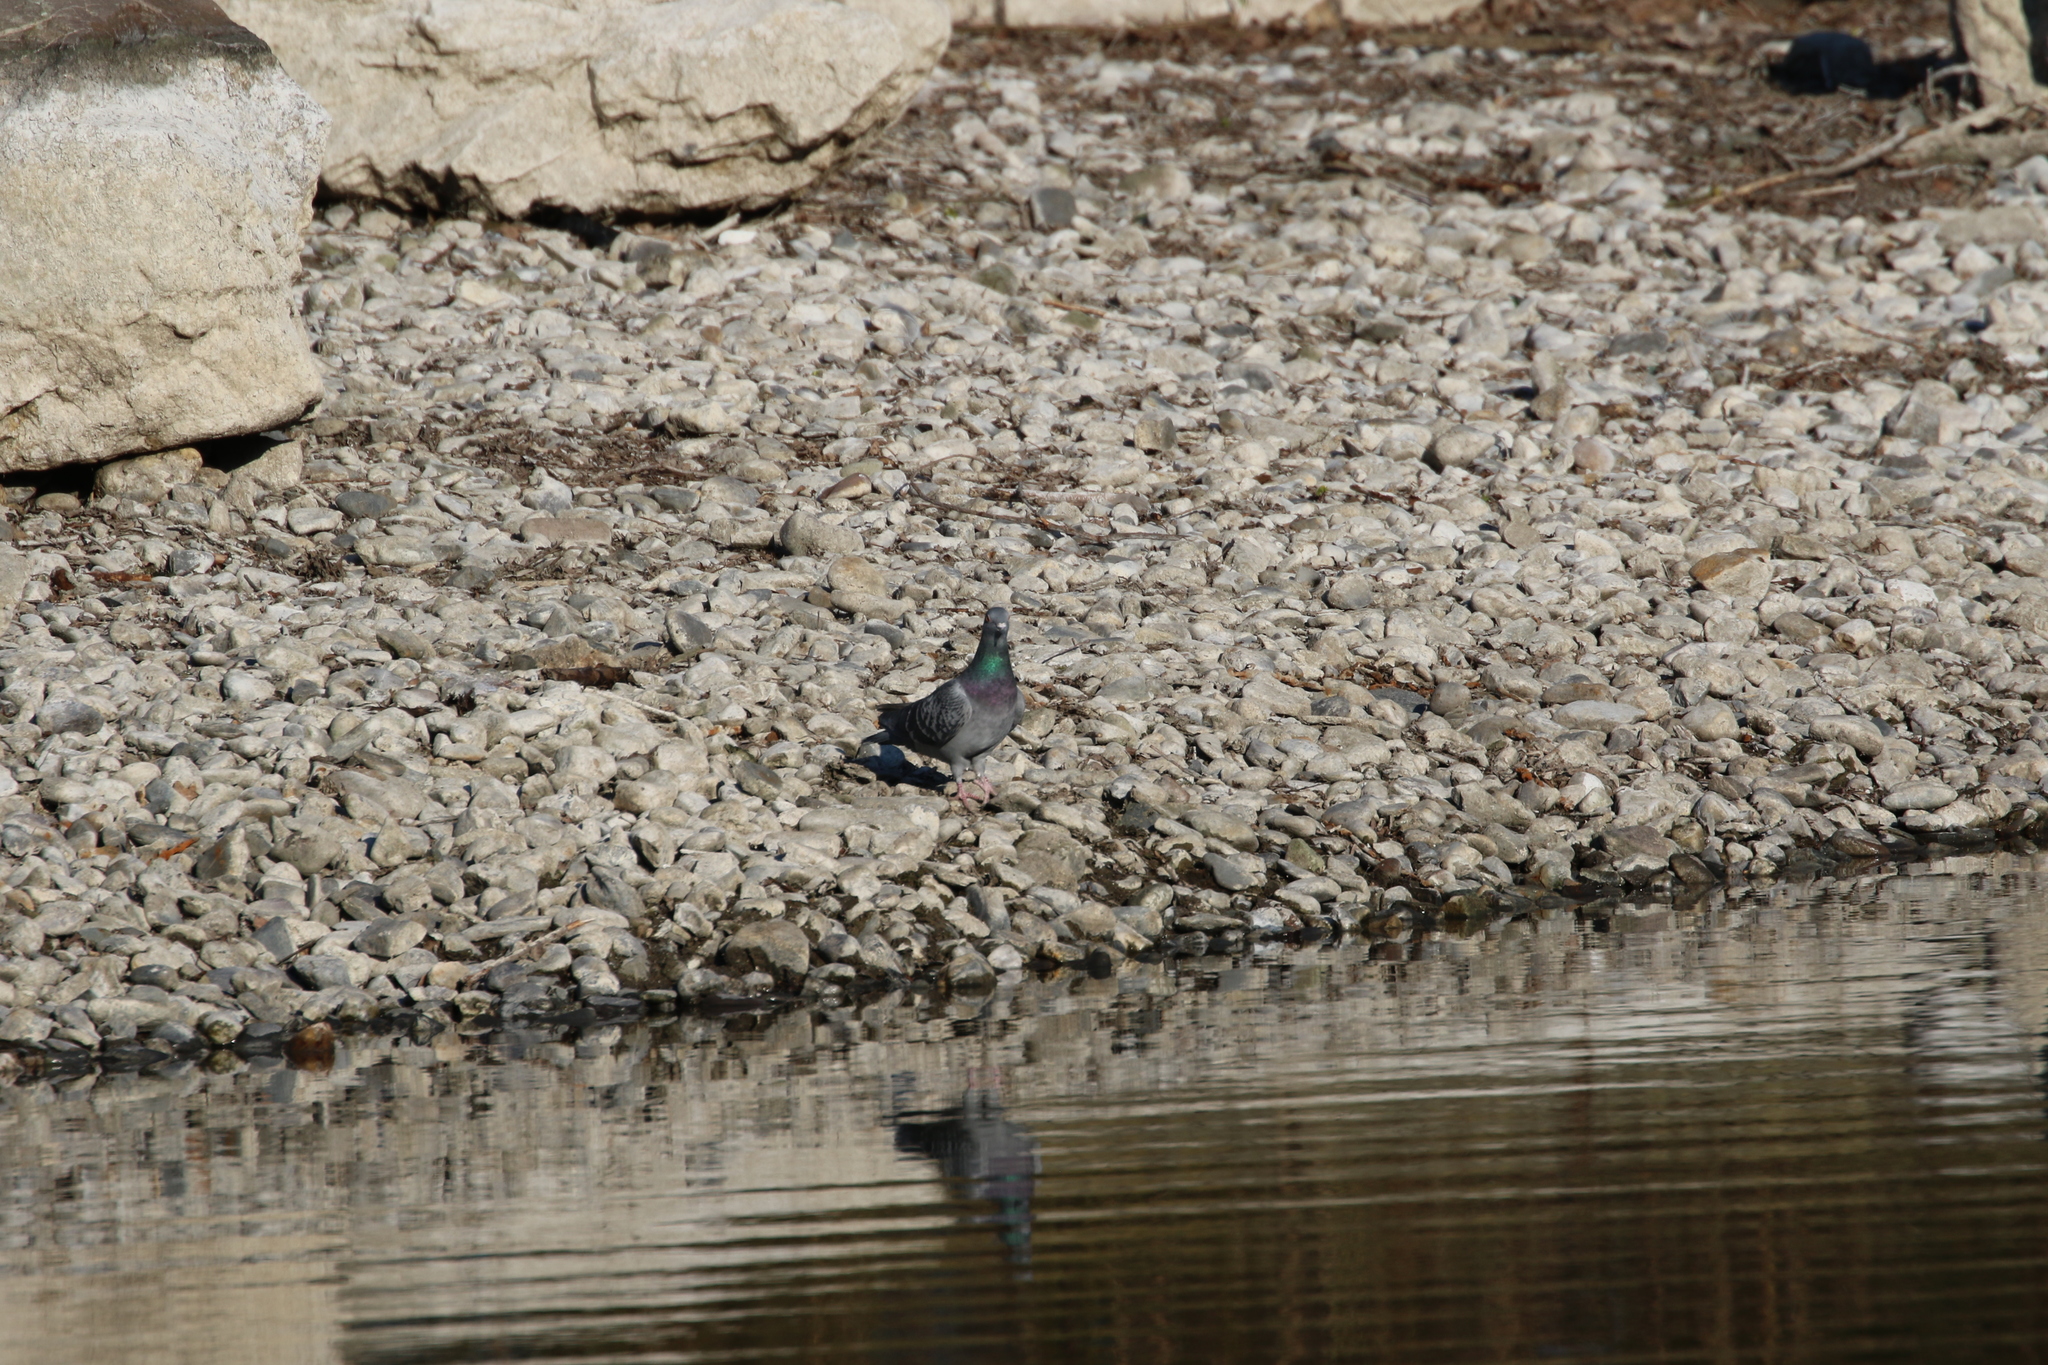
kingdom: Animalia
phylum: Chordata
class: Aves
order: Columbiformes
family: Columbidae
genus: Columba
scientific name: Columba livia
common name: Rock pigeon
